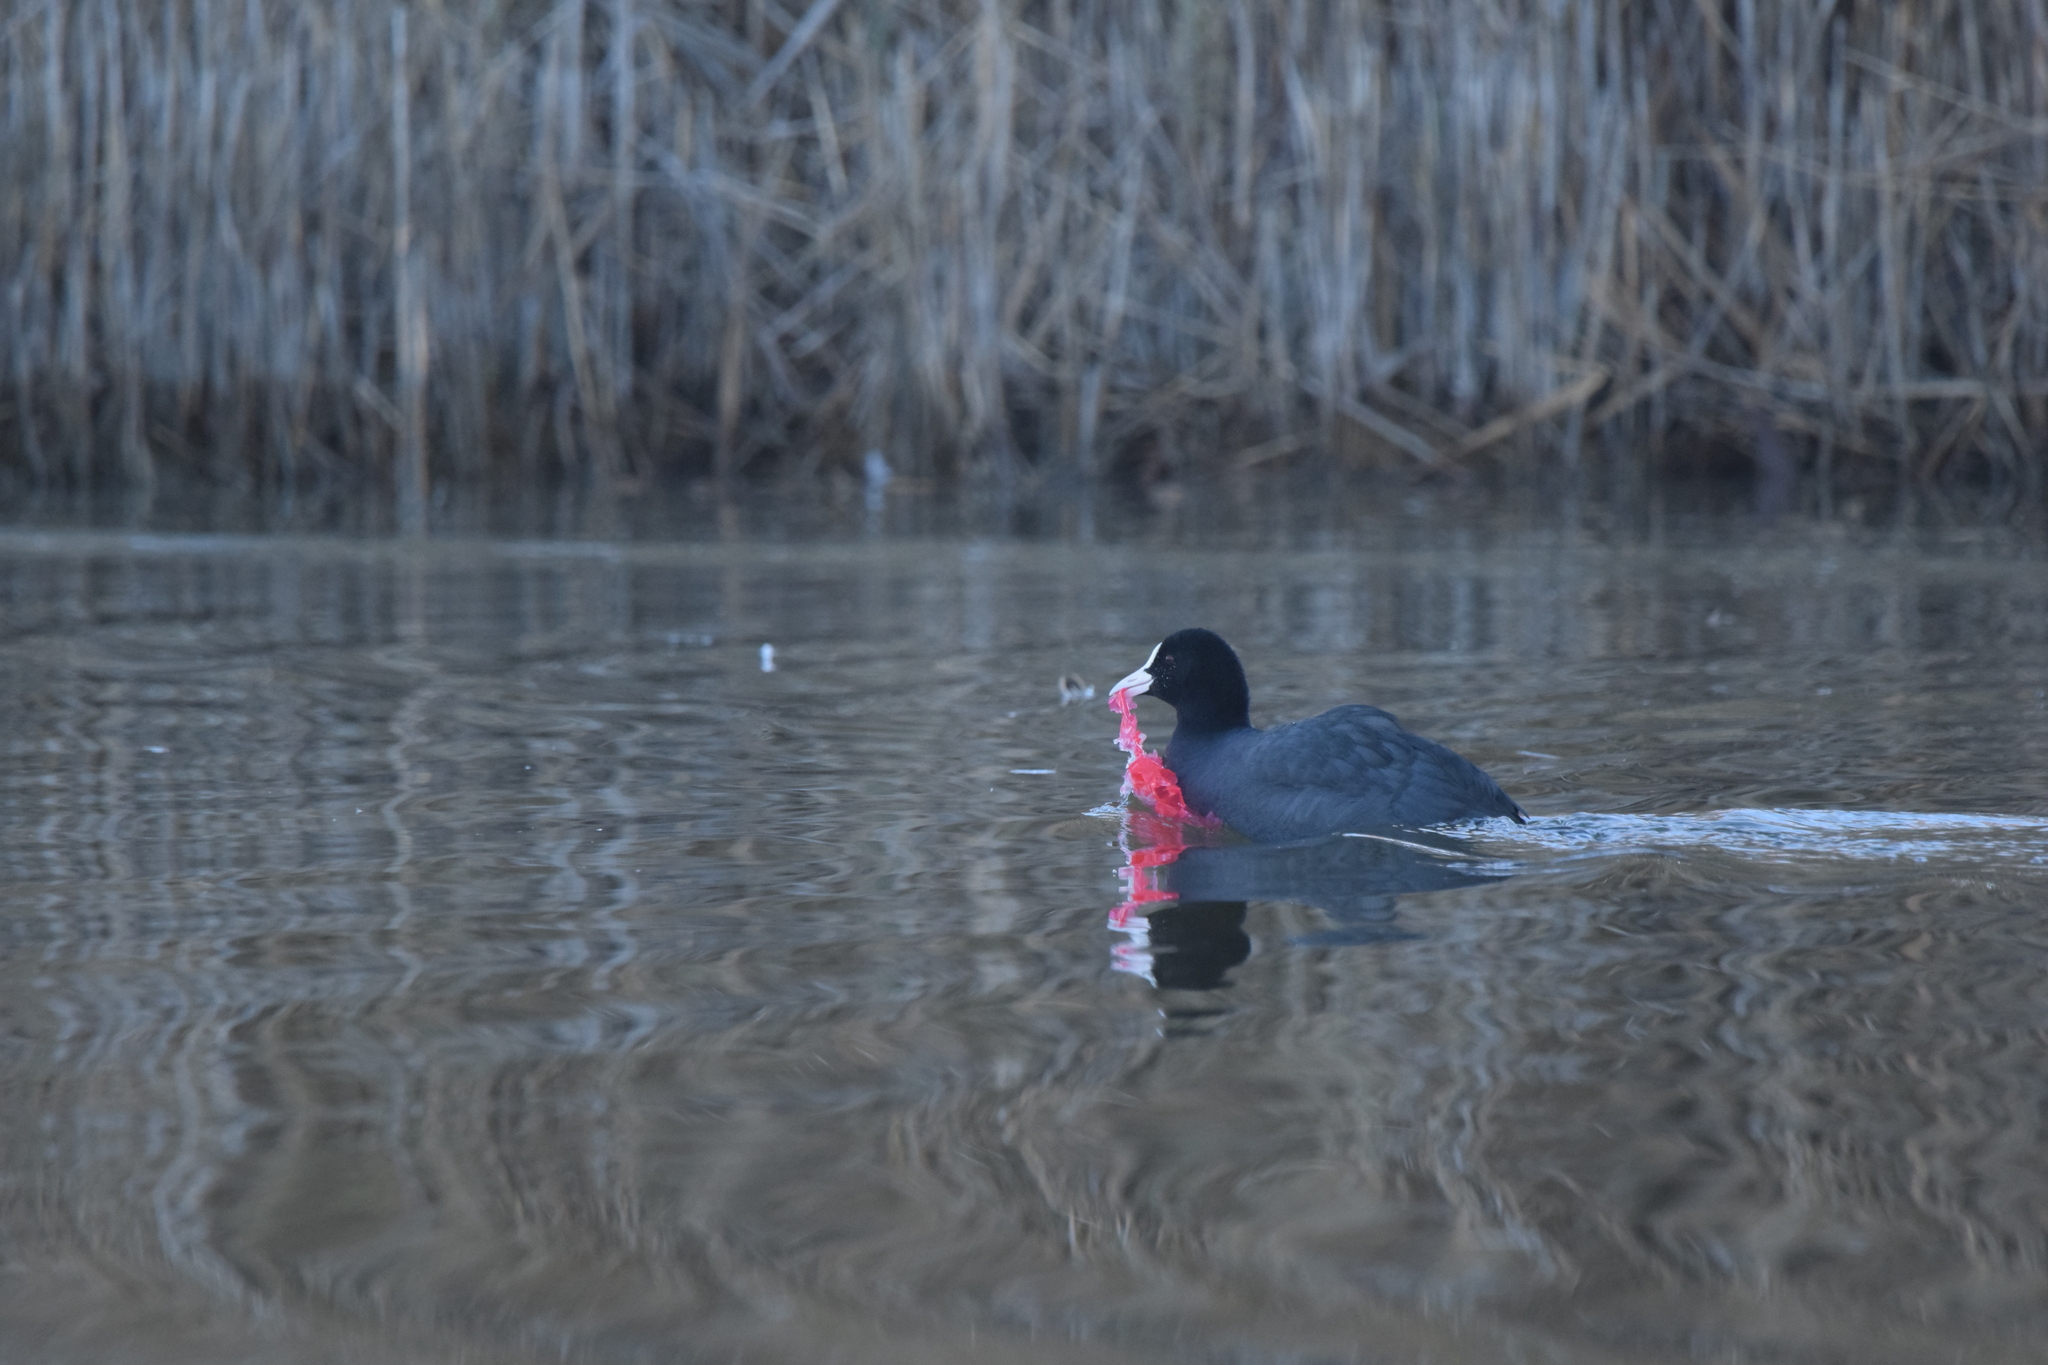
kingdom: Animalia
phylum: Chordata
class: Aves
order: Gruiformes
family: Rallidae
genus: Fulica
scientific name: Fulica atra
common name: Eurasian coot
